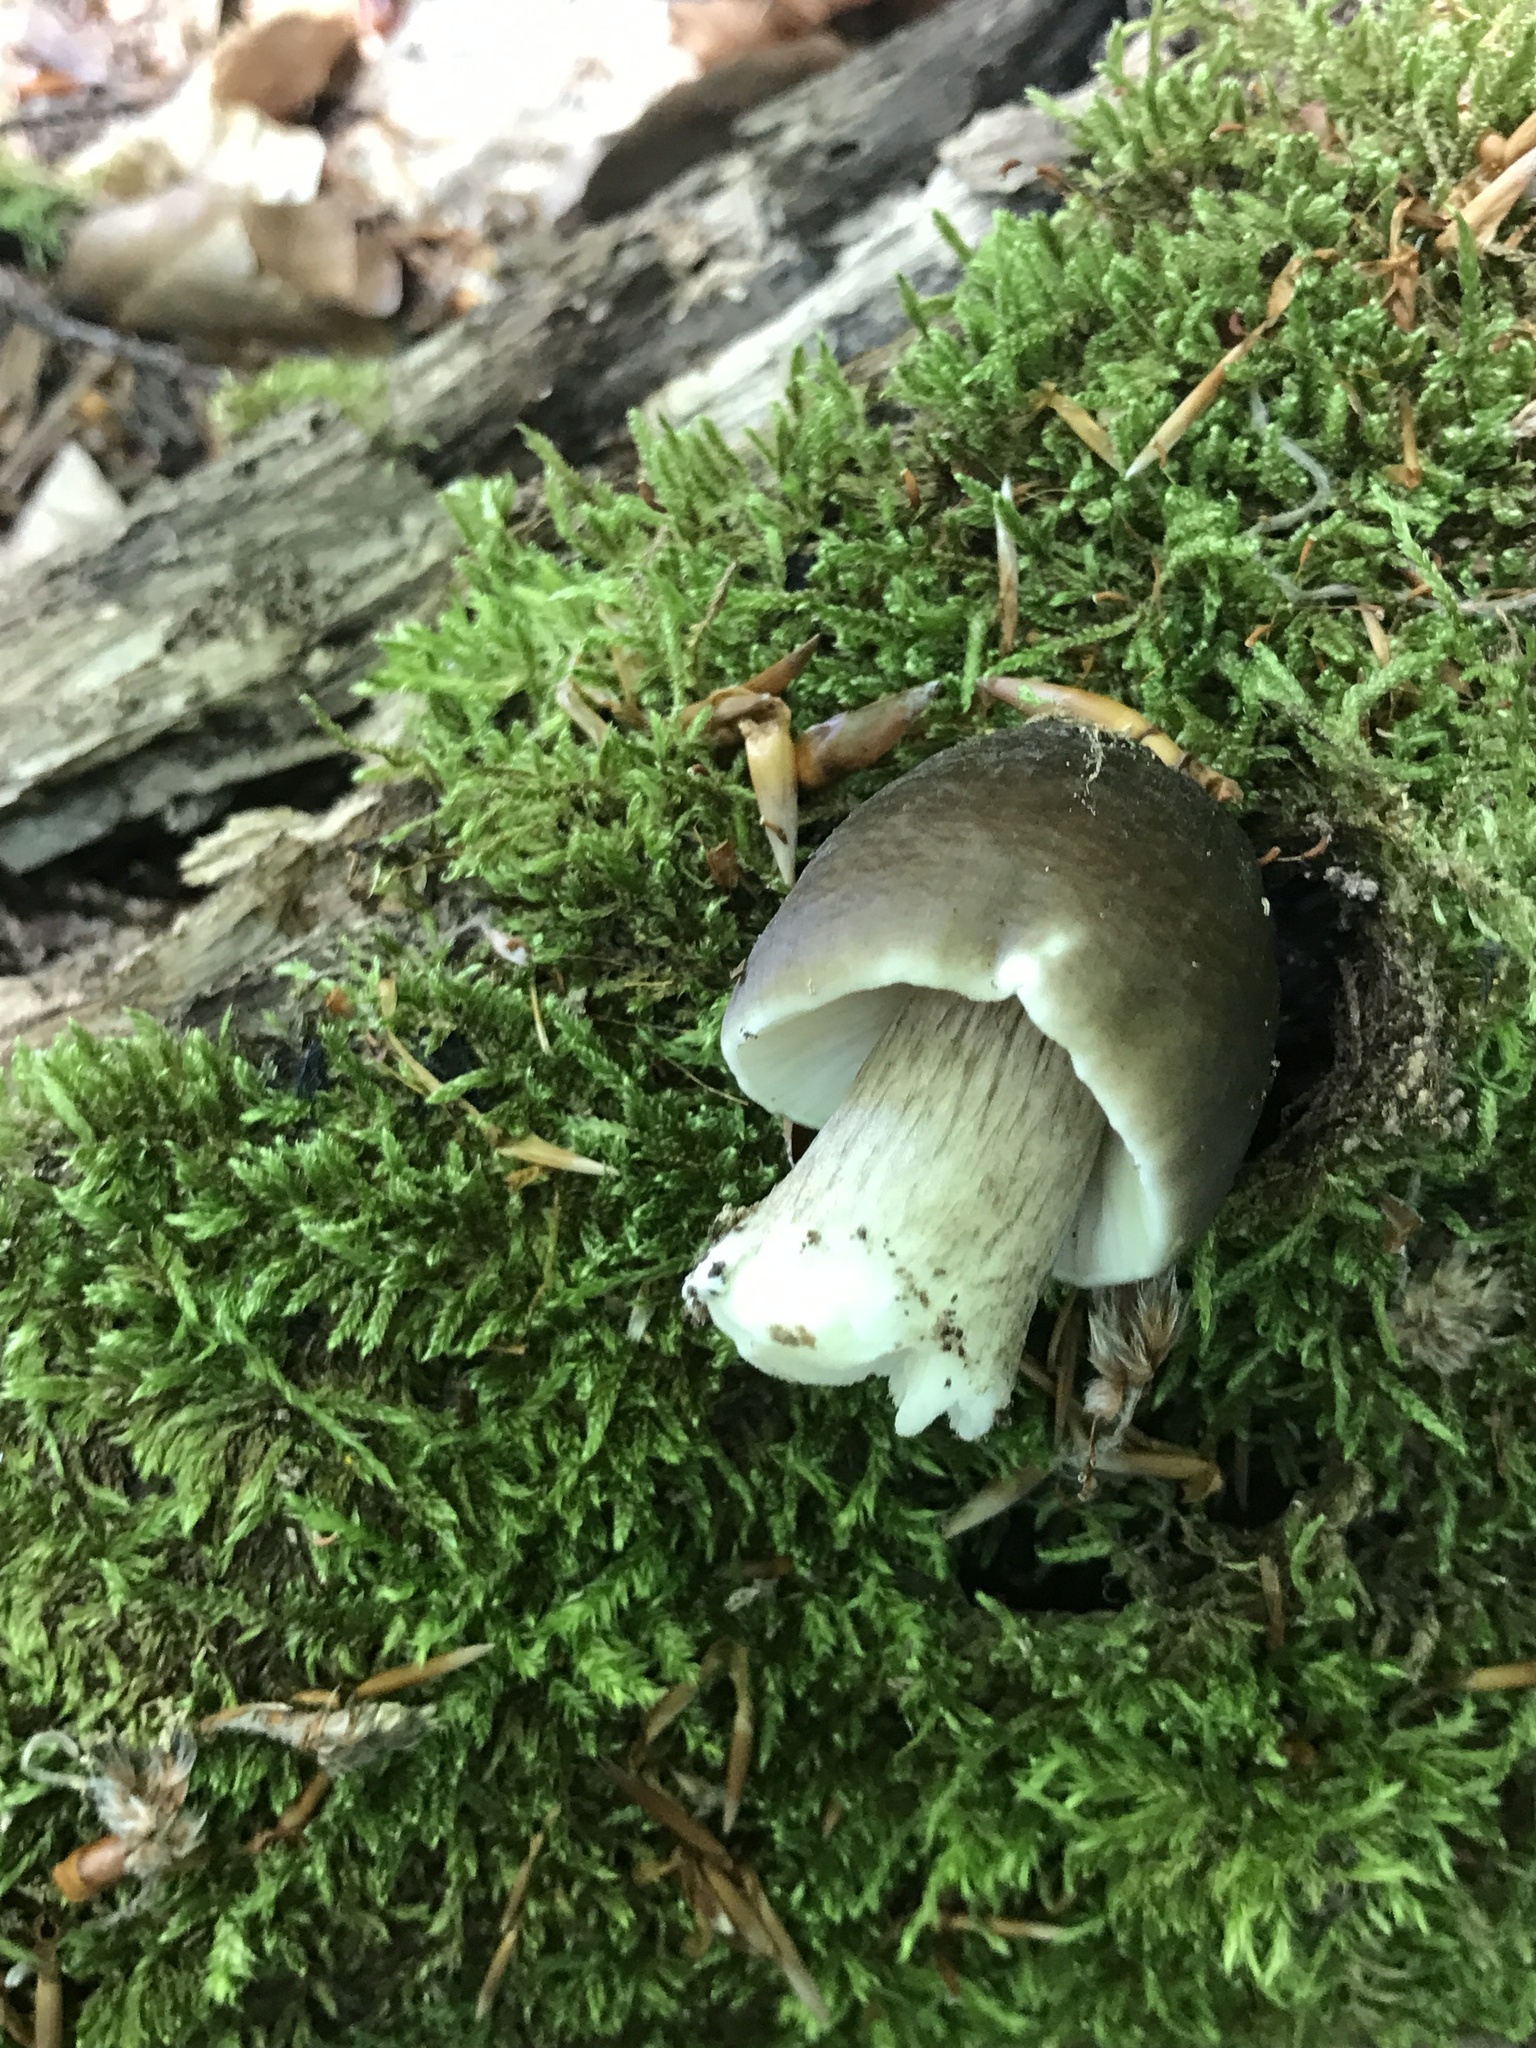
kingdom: Fungi
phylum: Basidiomycota
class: Agaricomycetes
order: Agaricales
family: Pluteaceae
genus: Pluteus
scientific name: Pluteus cervinus
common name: Deer shield
